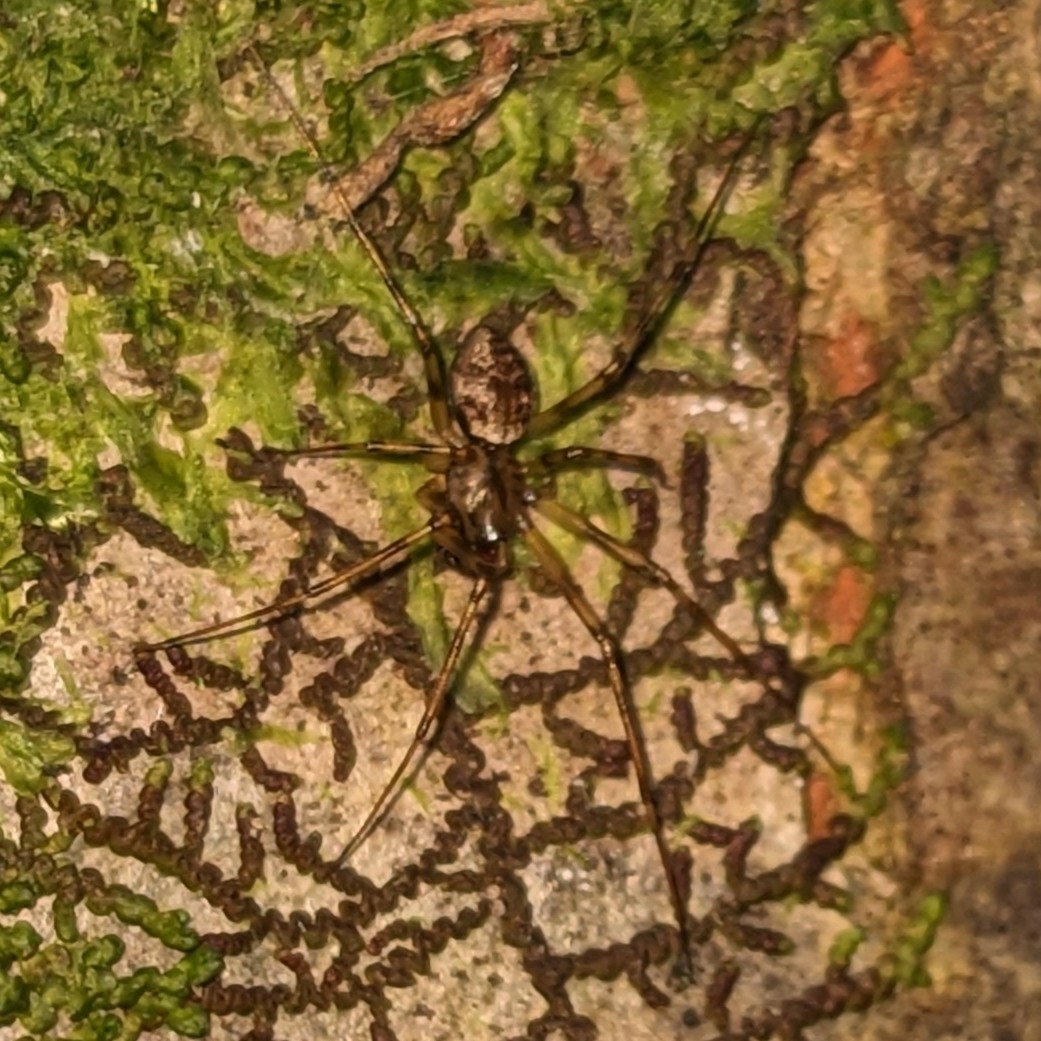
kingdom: Animalia
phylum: Arthropoda
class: Arachnida
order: Araneae
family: Linyphiidae
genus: Drapetisca
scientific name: Drapetisca socialis
